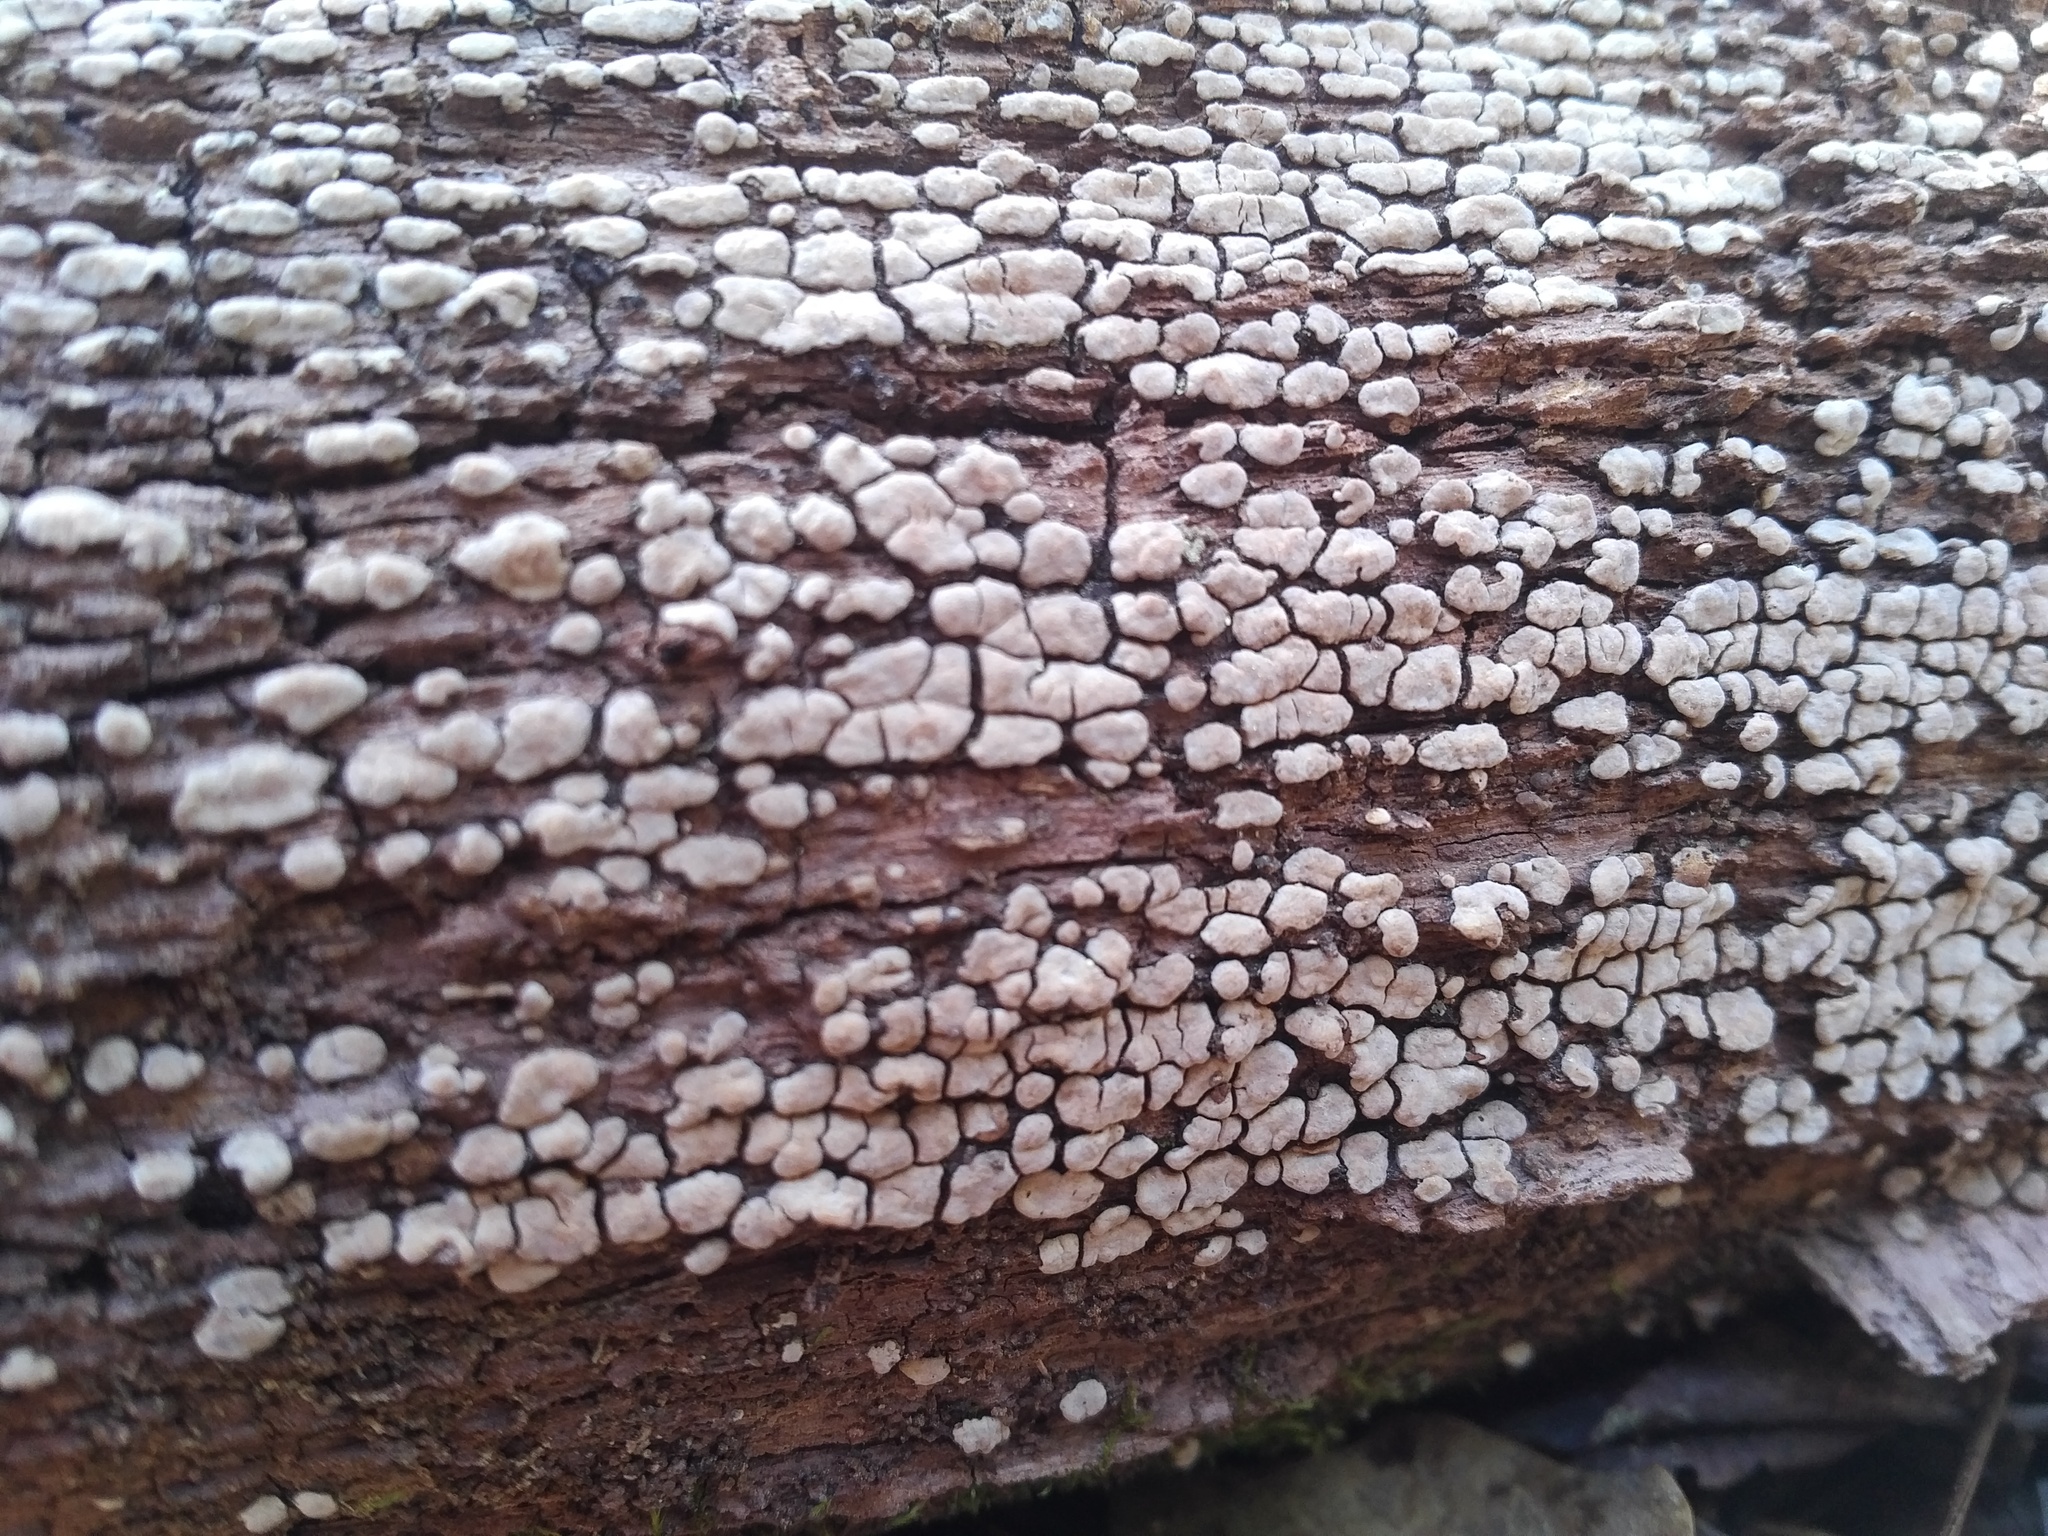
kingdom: Fungi
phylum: Basidiomycota
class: Agaricomycetes
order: Russulales
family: Stereaceae
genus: Xylobolus
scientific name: Xylobolus frustulatus
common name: Ceramic parchment
